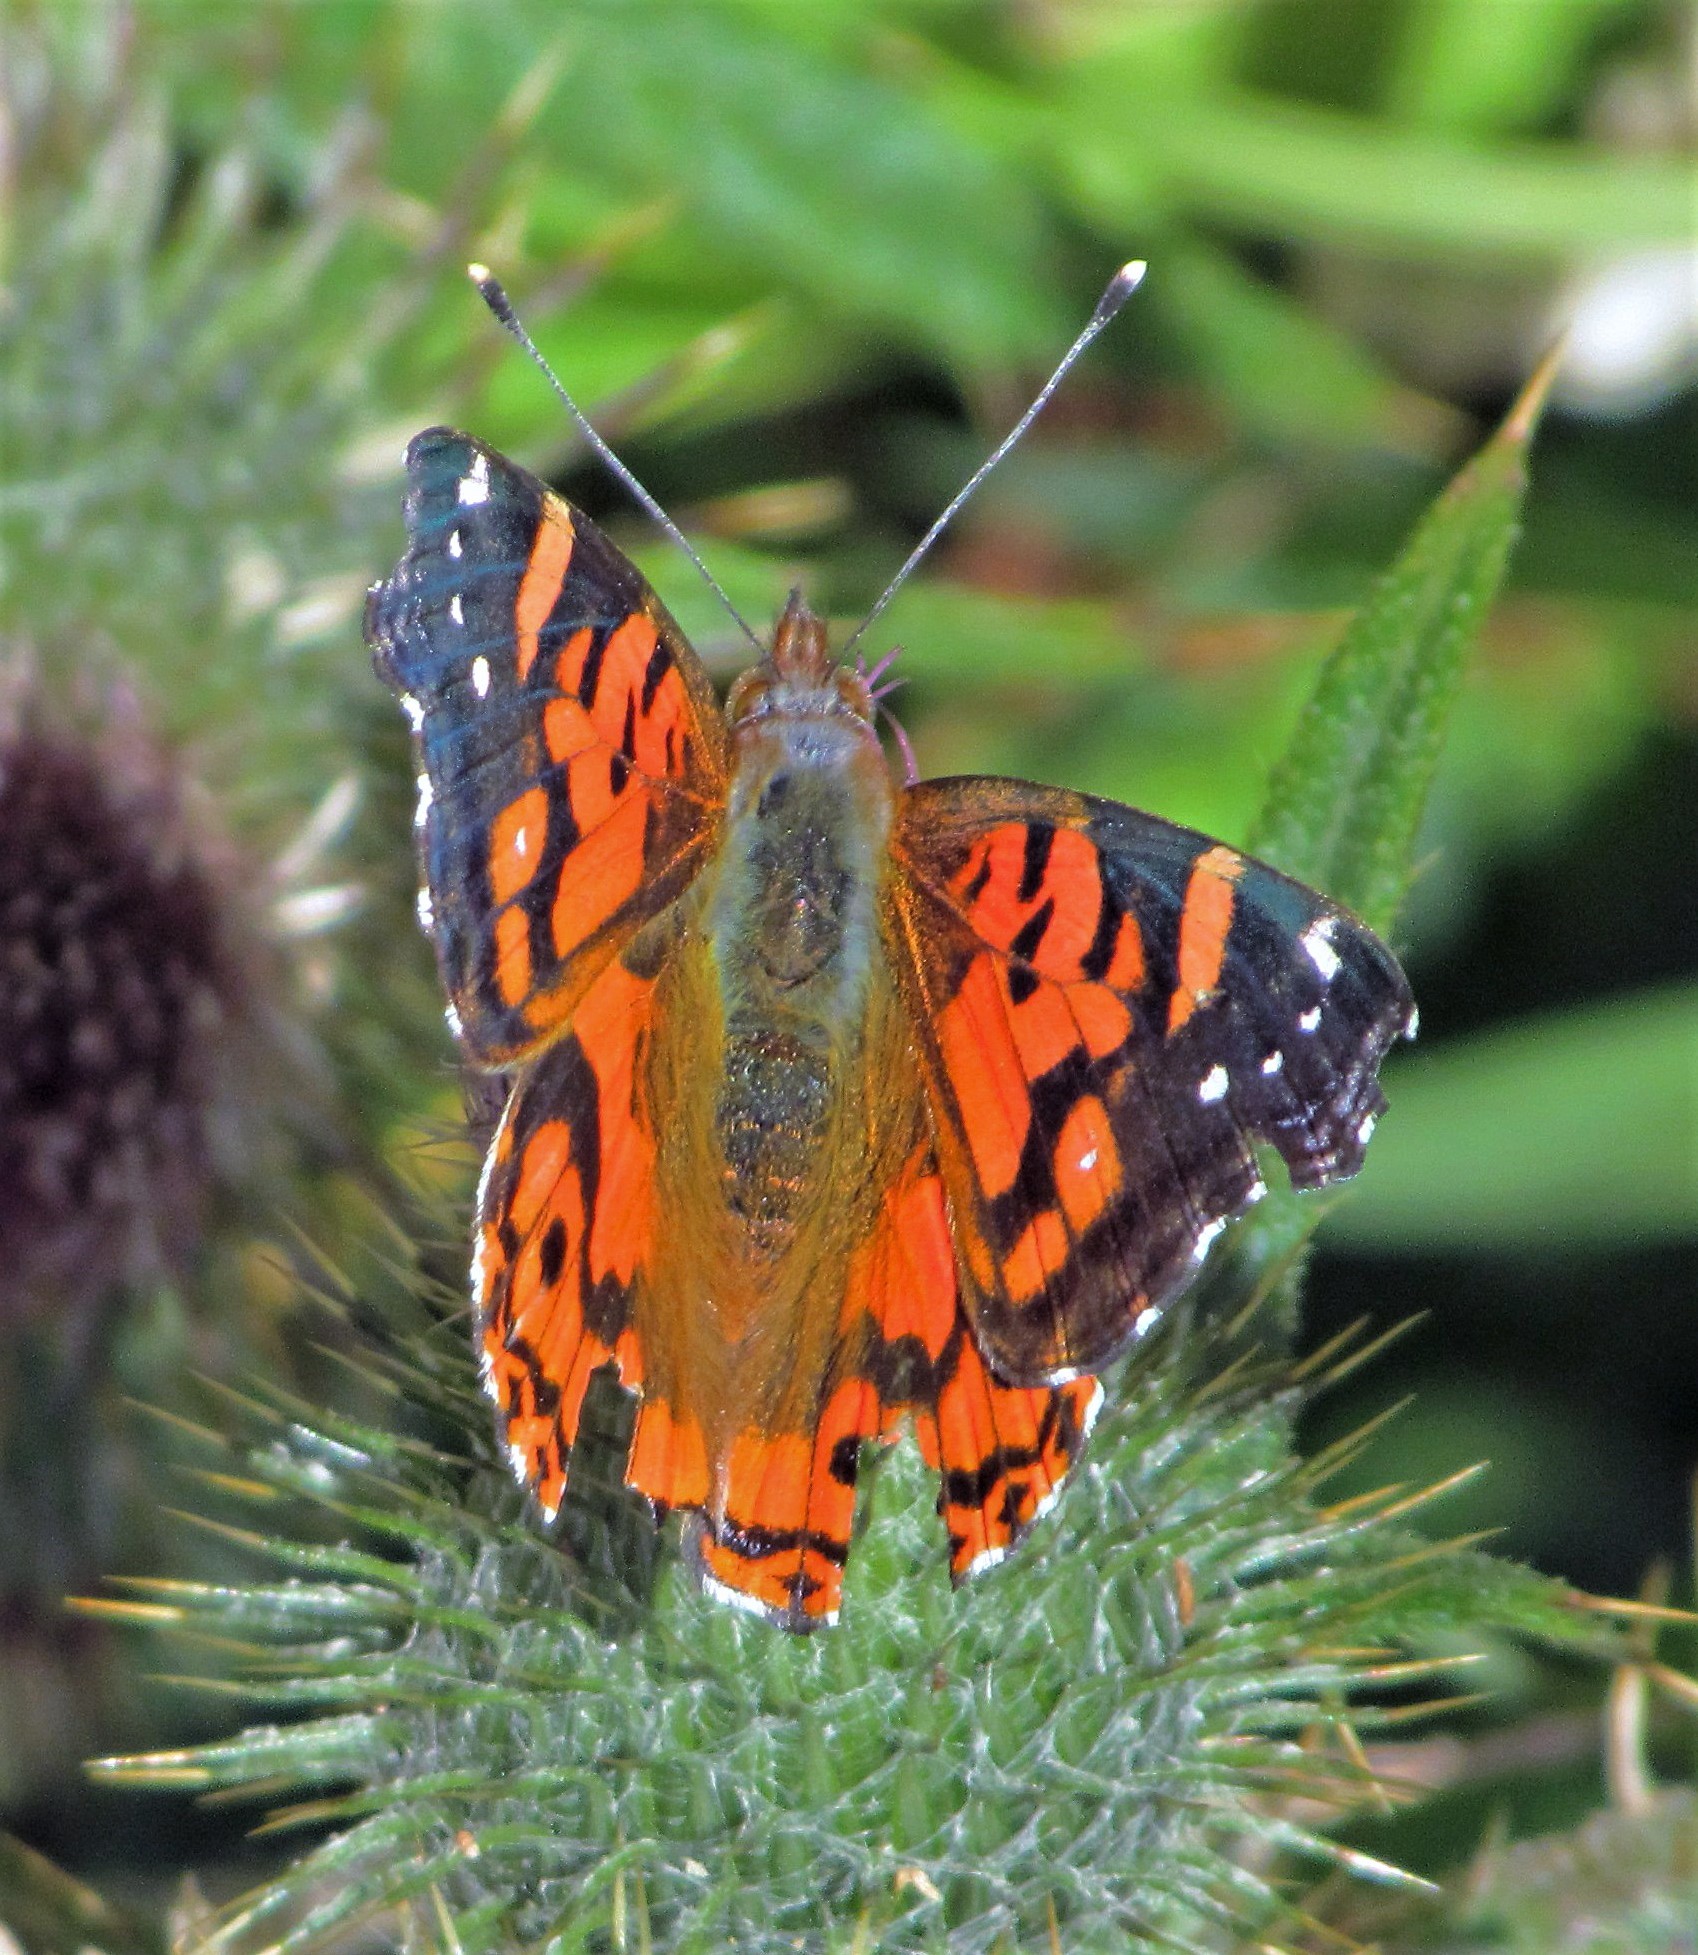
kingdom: Animalia
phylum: Arthropoda
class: Insecta
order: Lepidoptera
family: Nymphalidae
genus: Vanessa
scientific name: Vanessa terpsichore
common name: Chilean lady
